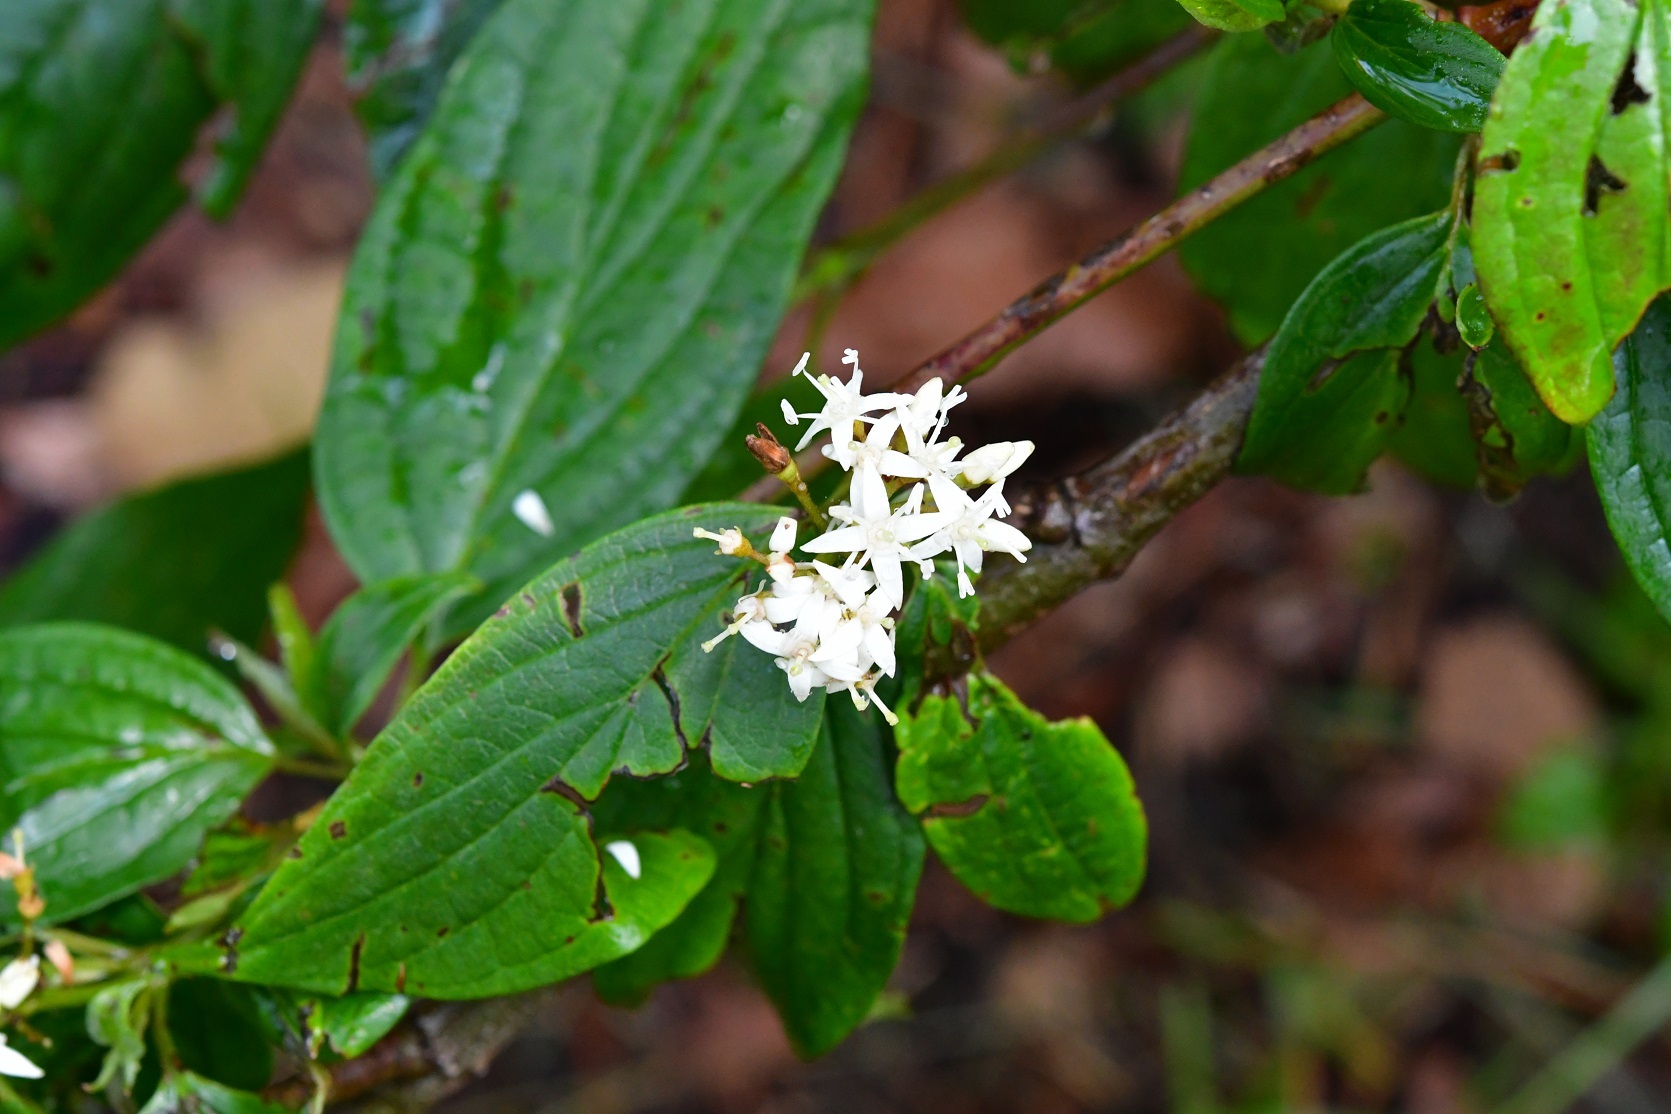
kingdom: Plantae
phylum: Tracheophyta
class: Magnoliopsida
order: Cornales
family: Cornaceae
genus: Cornus
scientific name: Cornus excelsa
